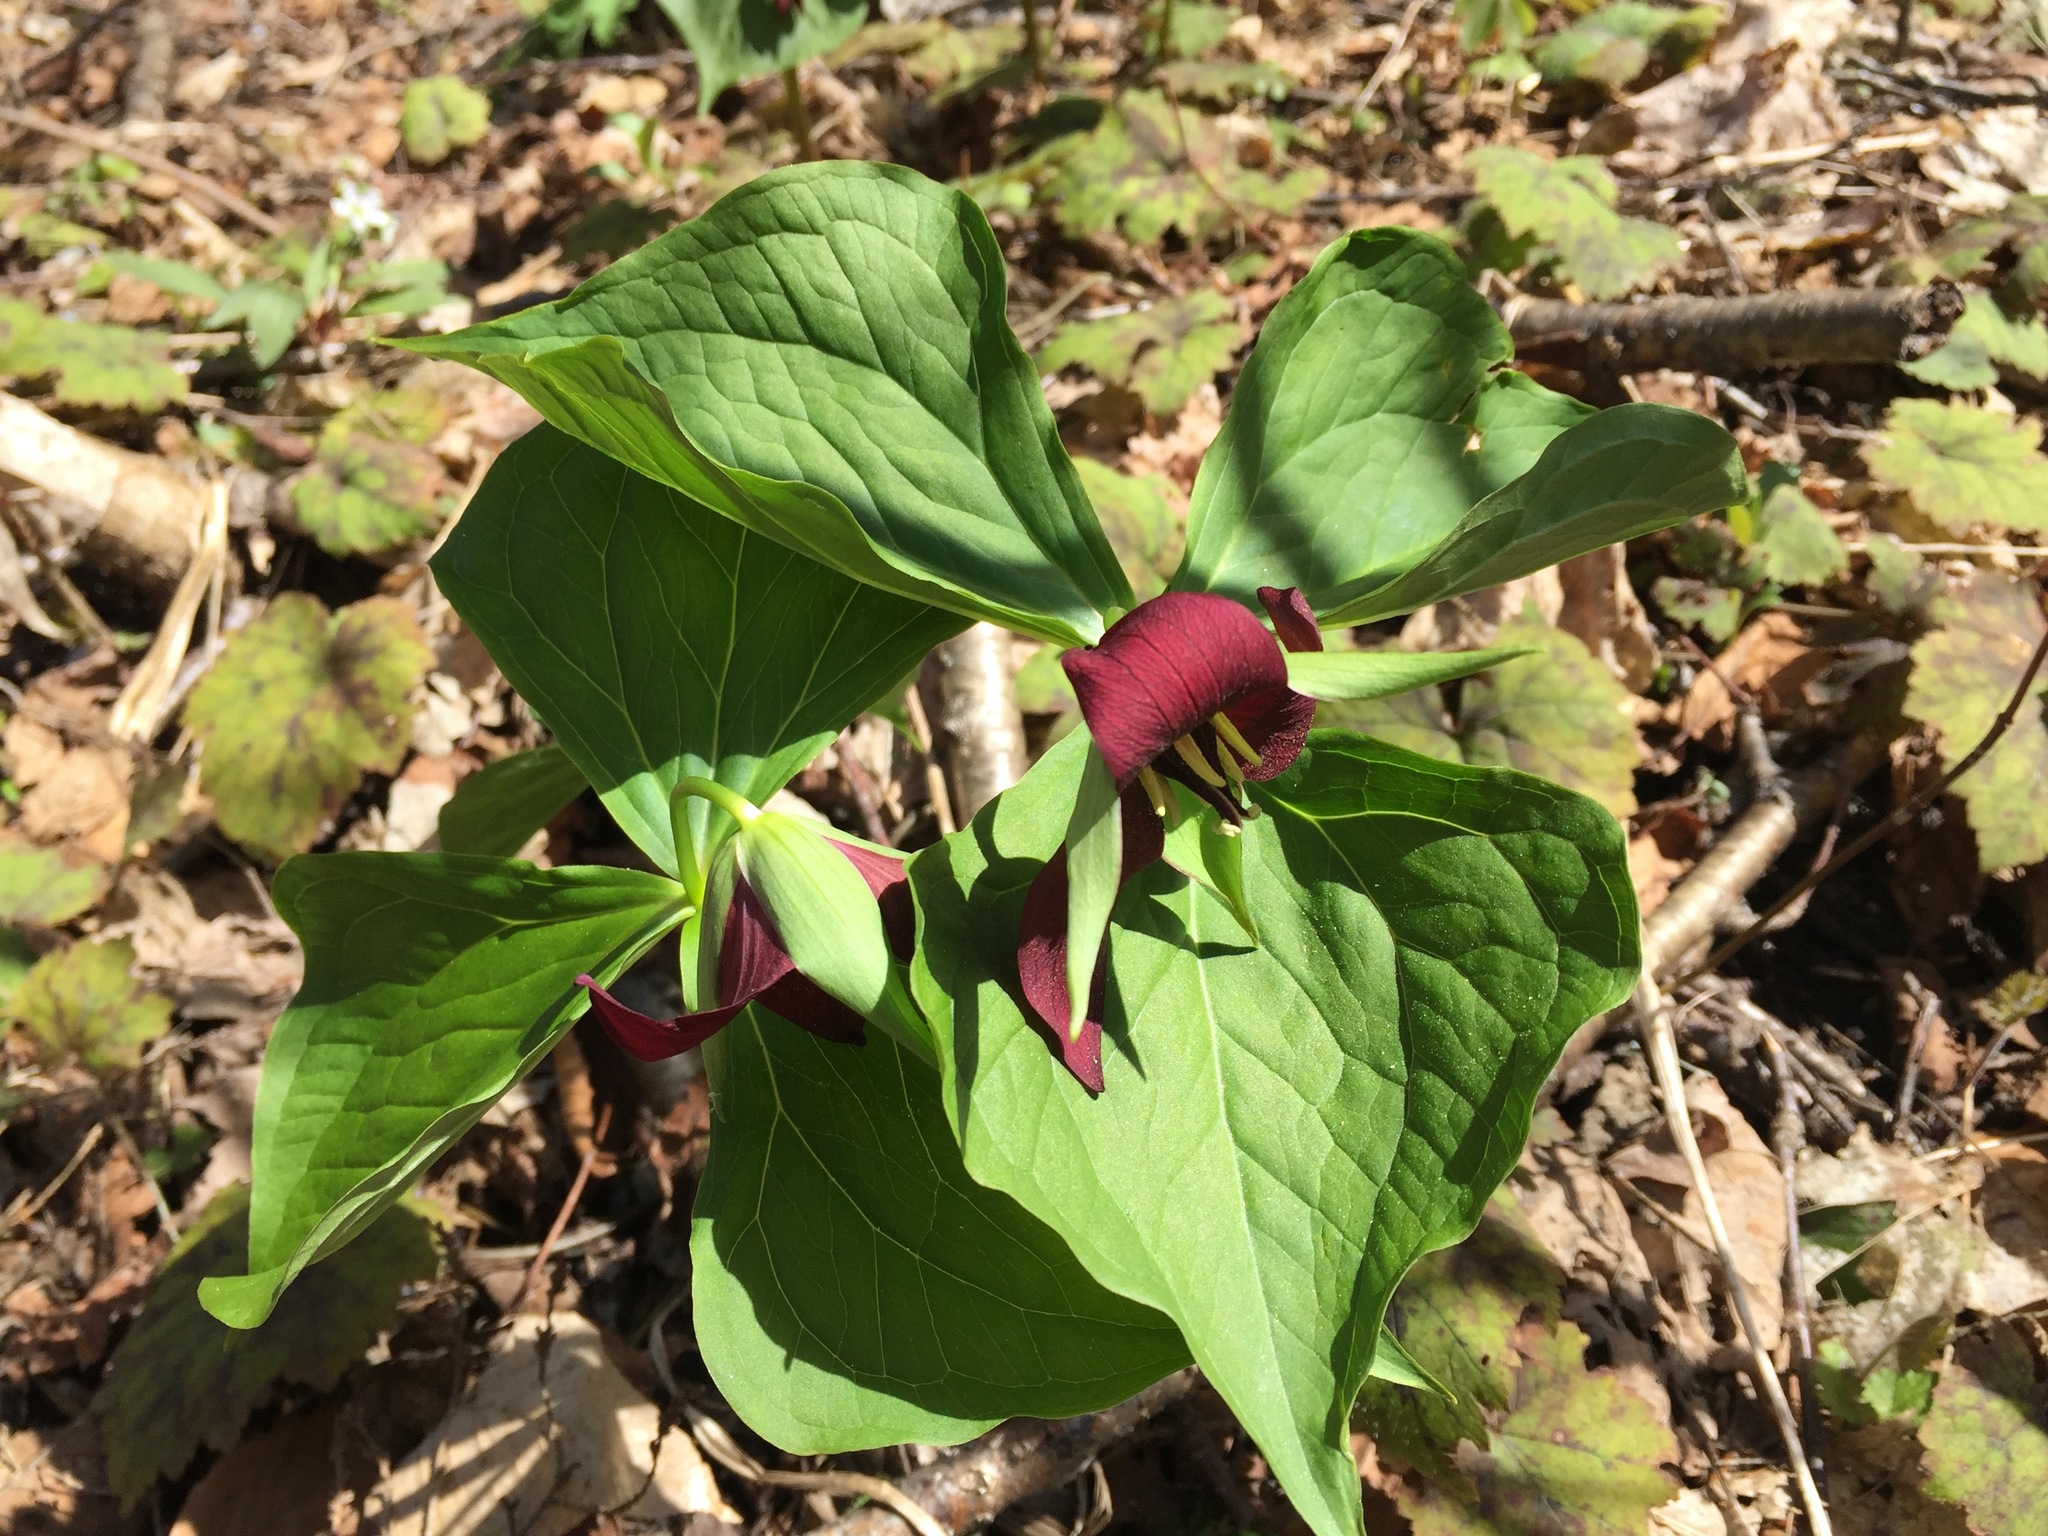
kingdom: Plantae
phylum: Tracheophyta
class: Liliopsida
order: Liliales
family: Melanthiaceae
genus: Trillium
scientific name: Trillium erectum
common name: Purple trillium
